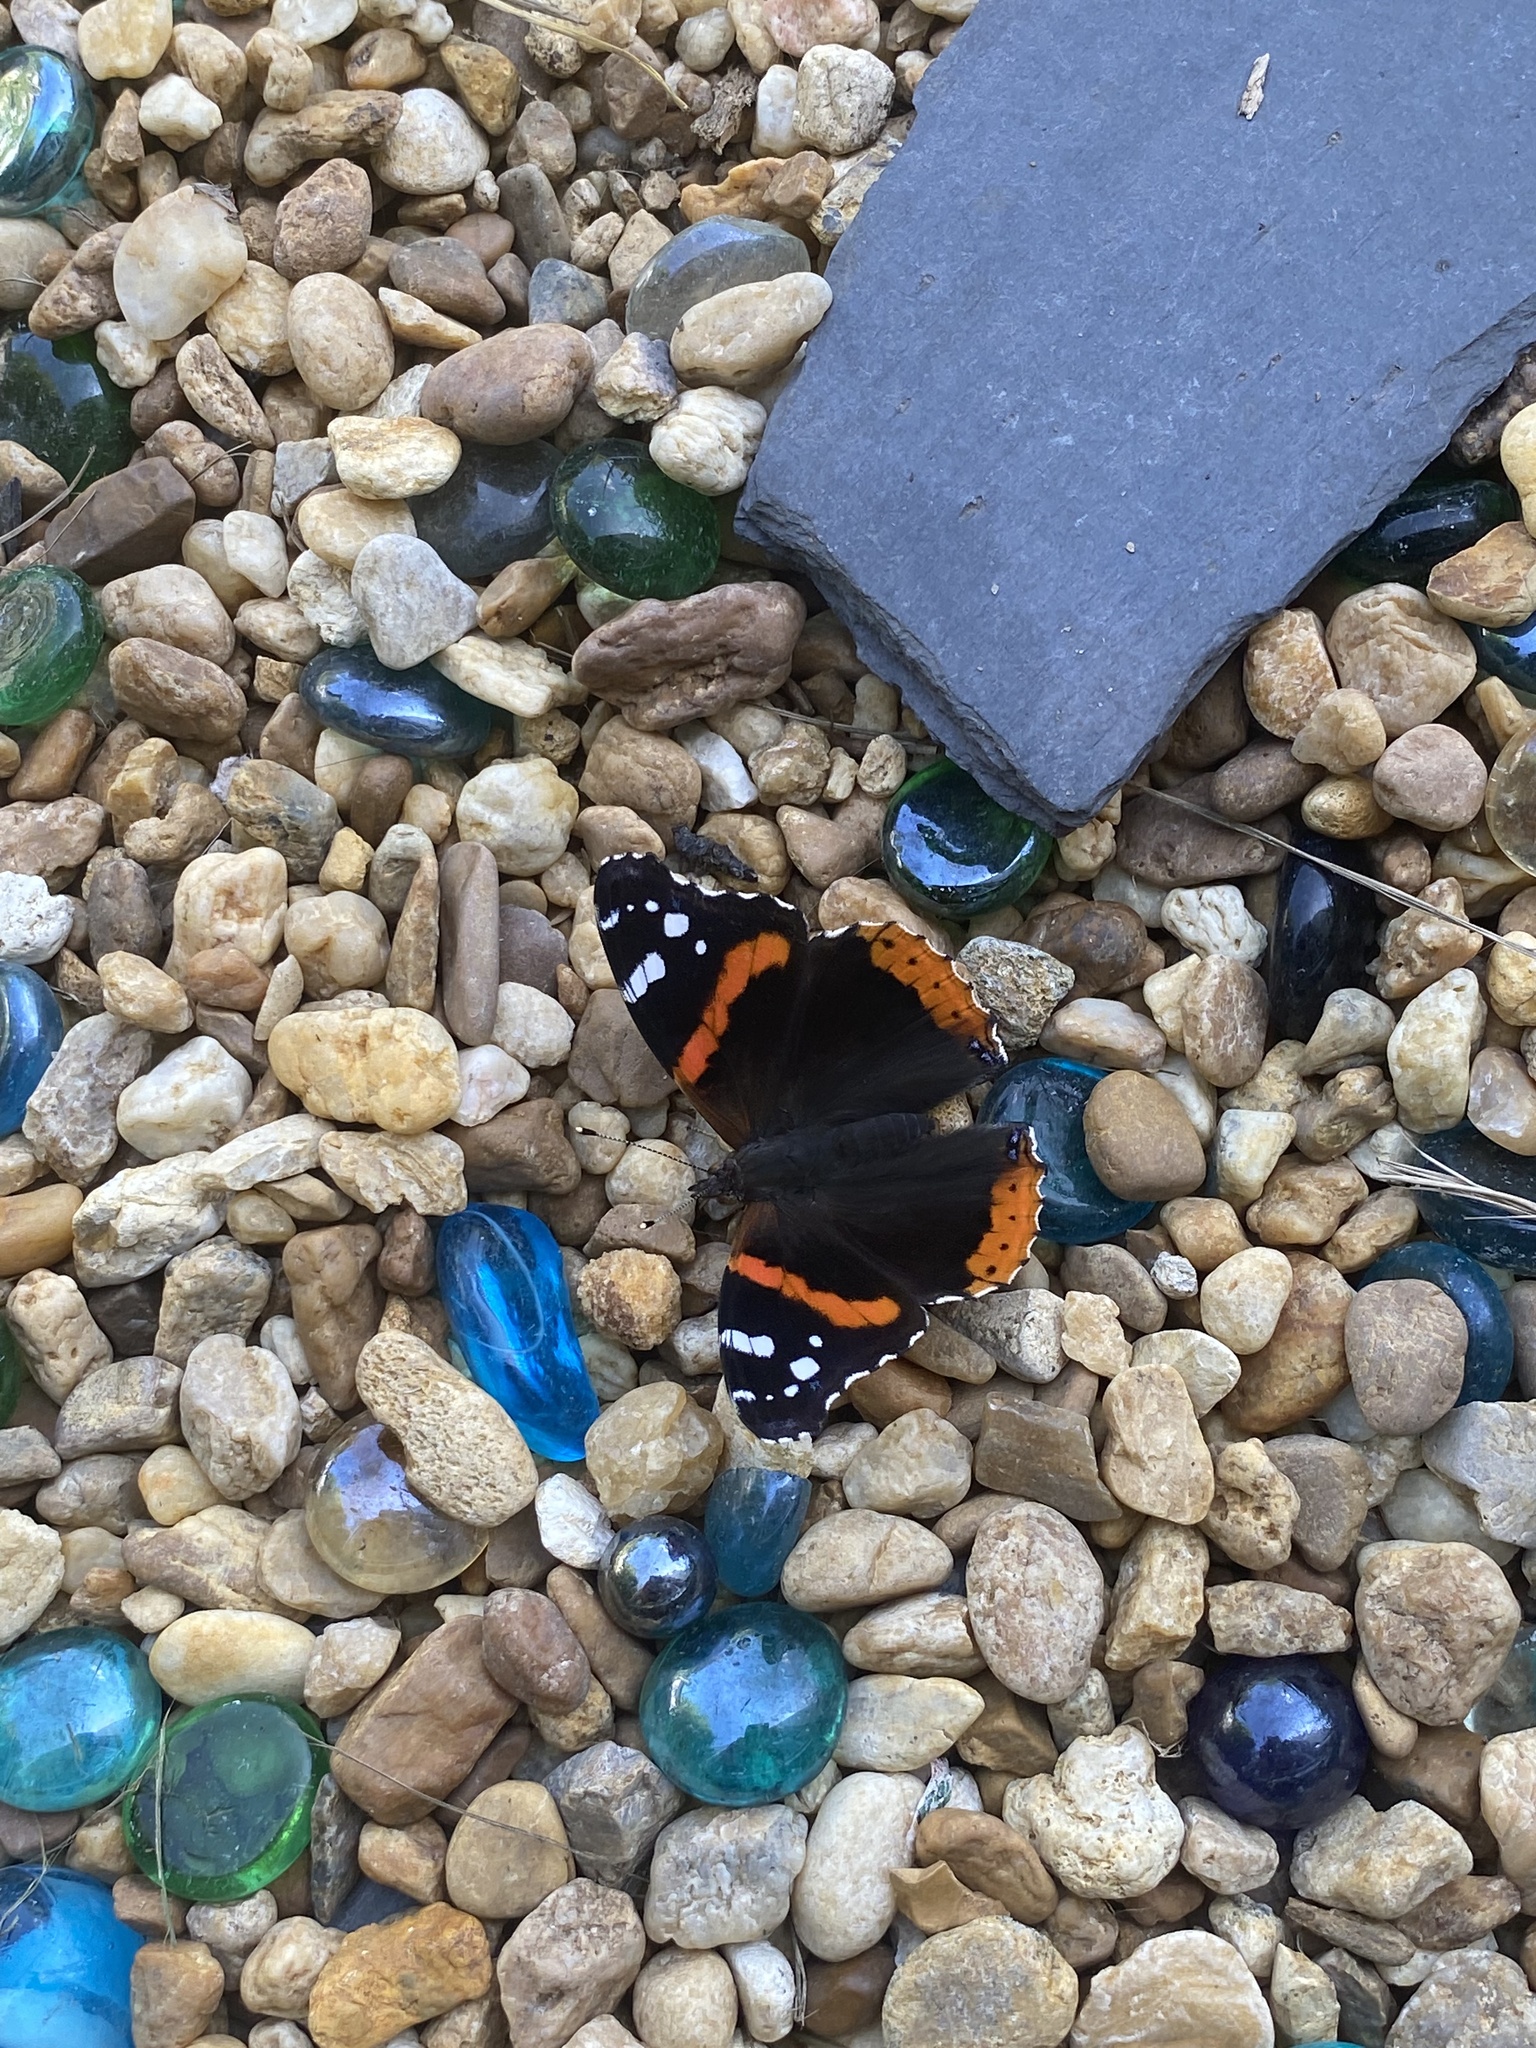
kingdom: Animalia
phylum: Arthropoda
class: Insecta
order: Lepidoptera
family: Nymphalidae
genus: Vanessa
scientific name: Vanessa atalanta
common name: Red admiral
